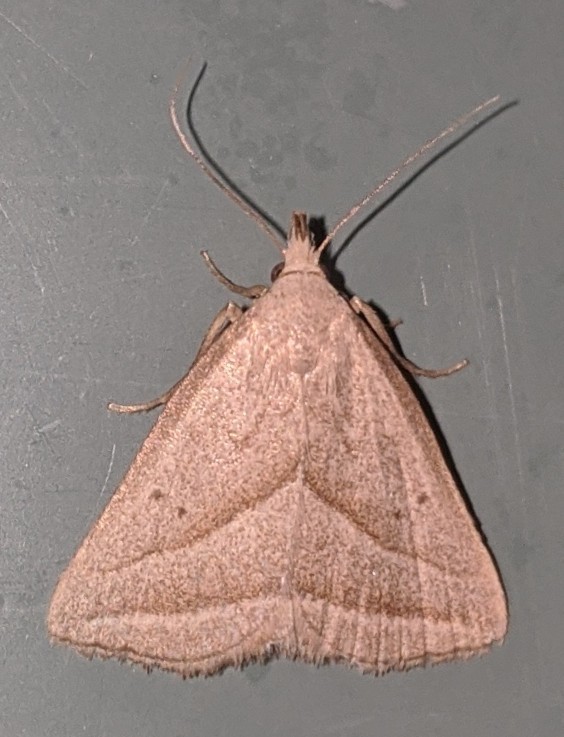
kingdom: Animalia
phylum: Arthropoda
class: Insecta
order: Lepidoptera
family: Erebidae
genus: Macrochilo
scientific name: Macrochilo absorptalis
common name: Slant-lined owlet
